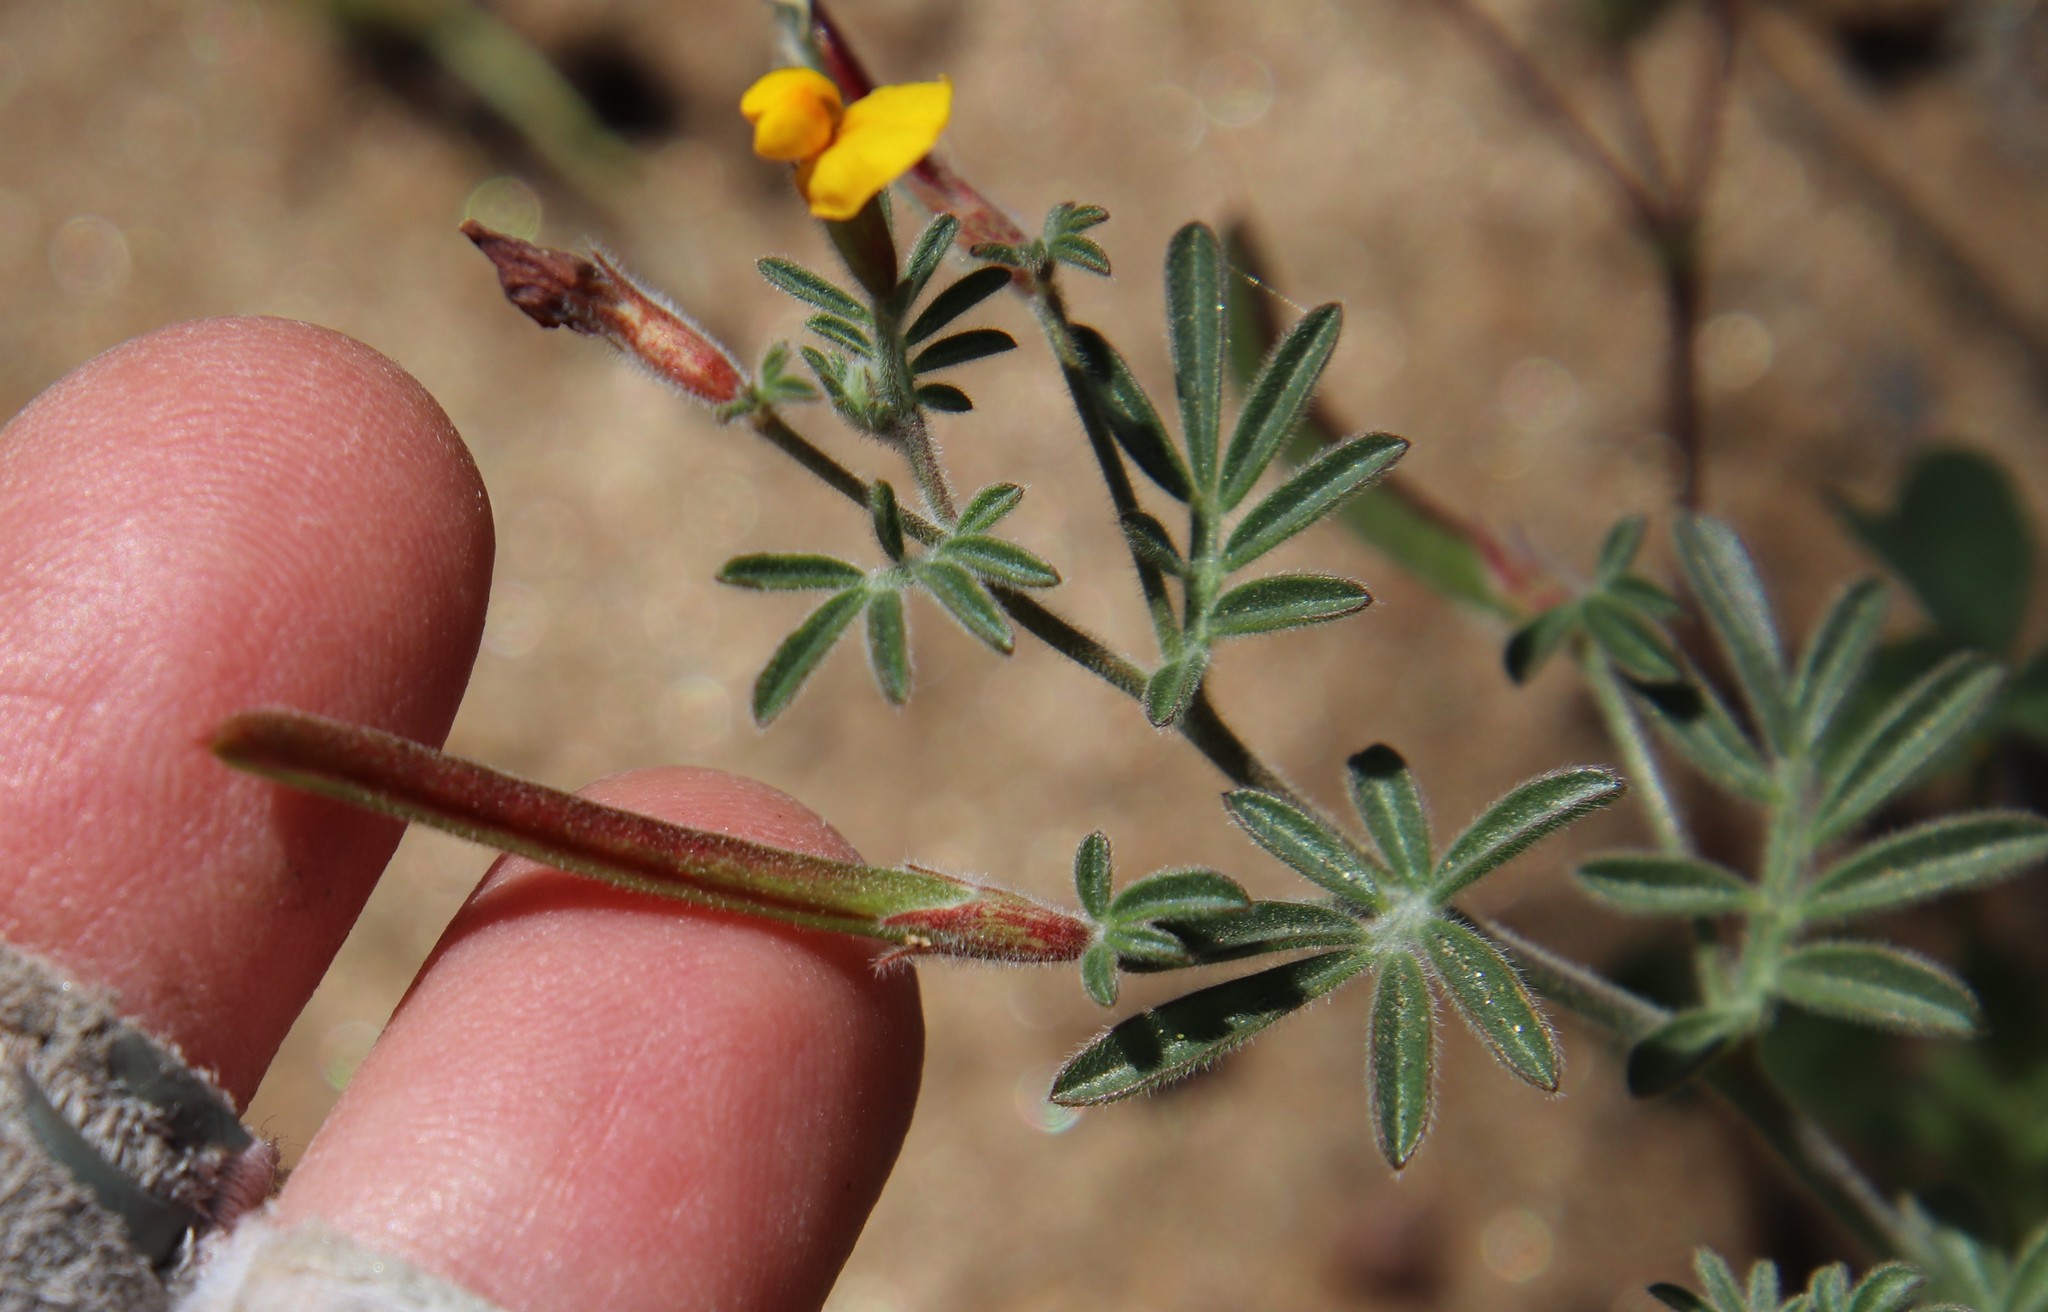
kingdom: Plantae
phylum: Tracheophyta
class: Magnoliopsida
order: Fabales
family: Fabaceae
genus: Acmispon
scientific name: Acmispon strigosus
